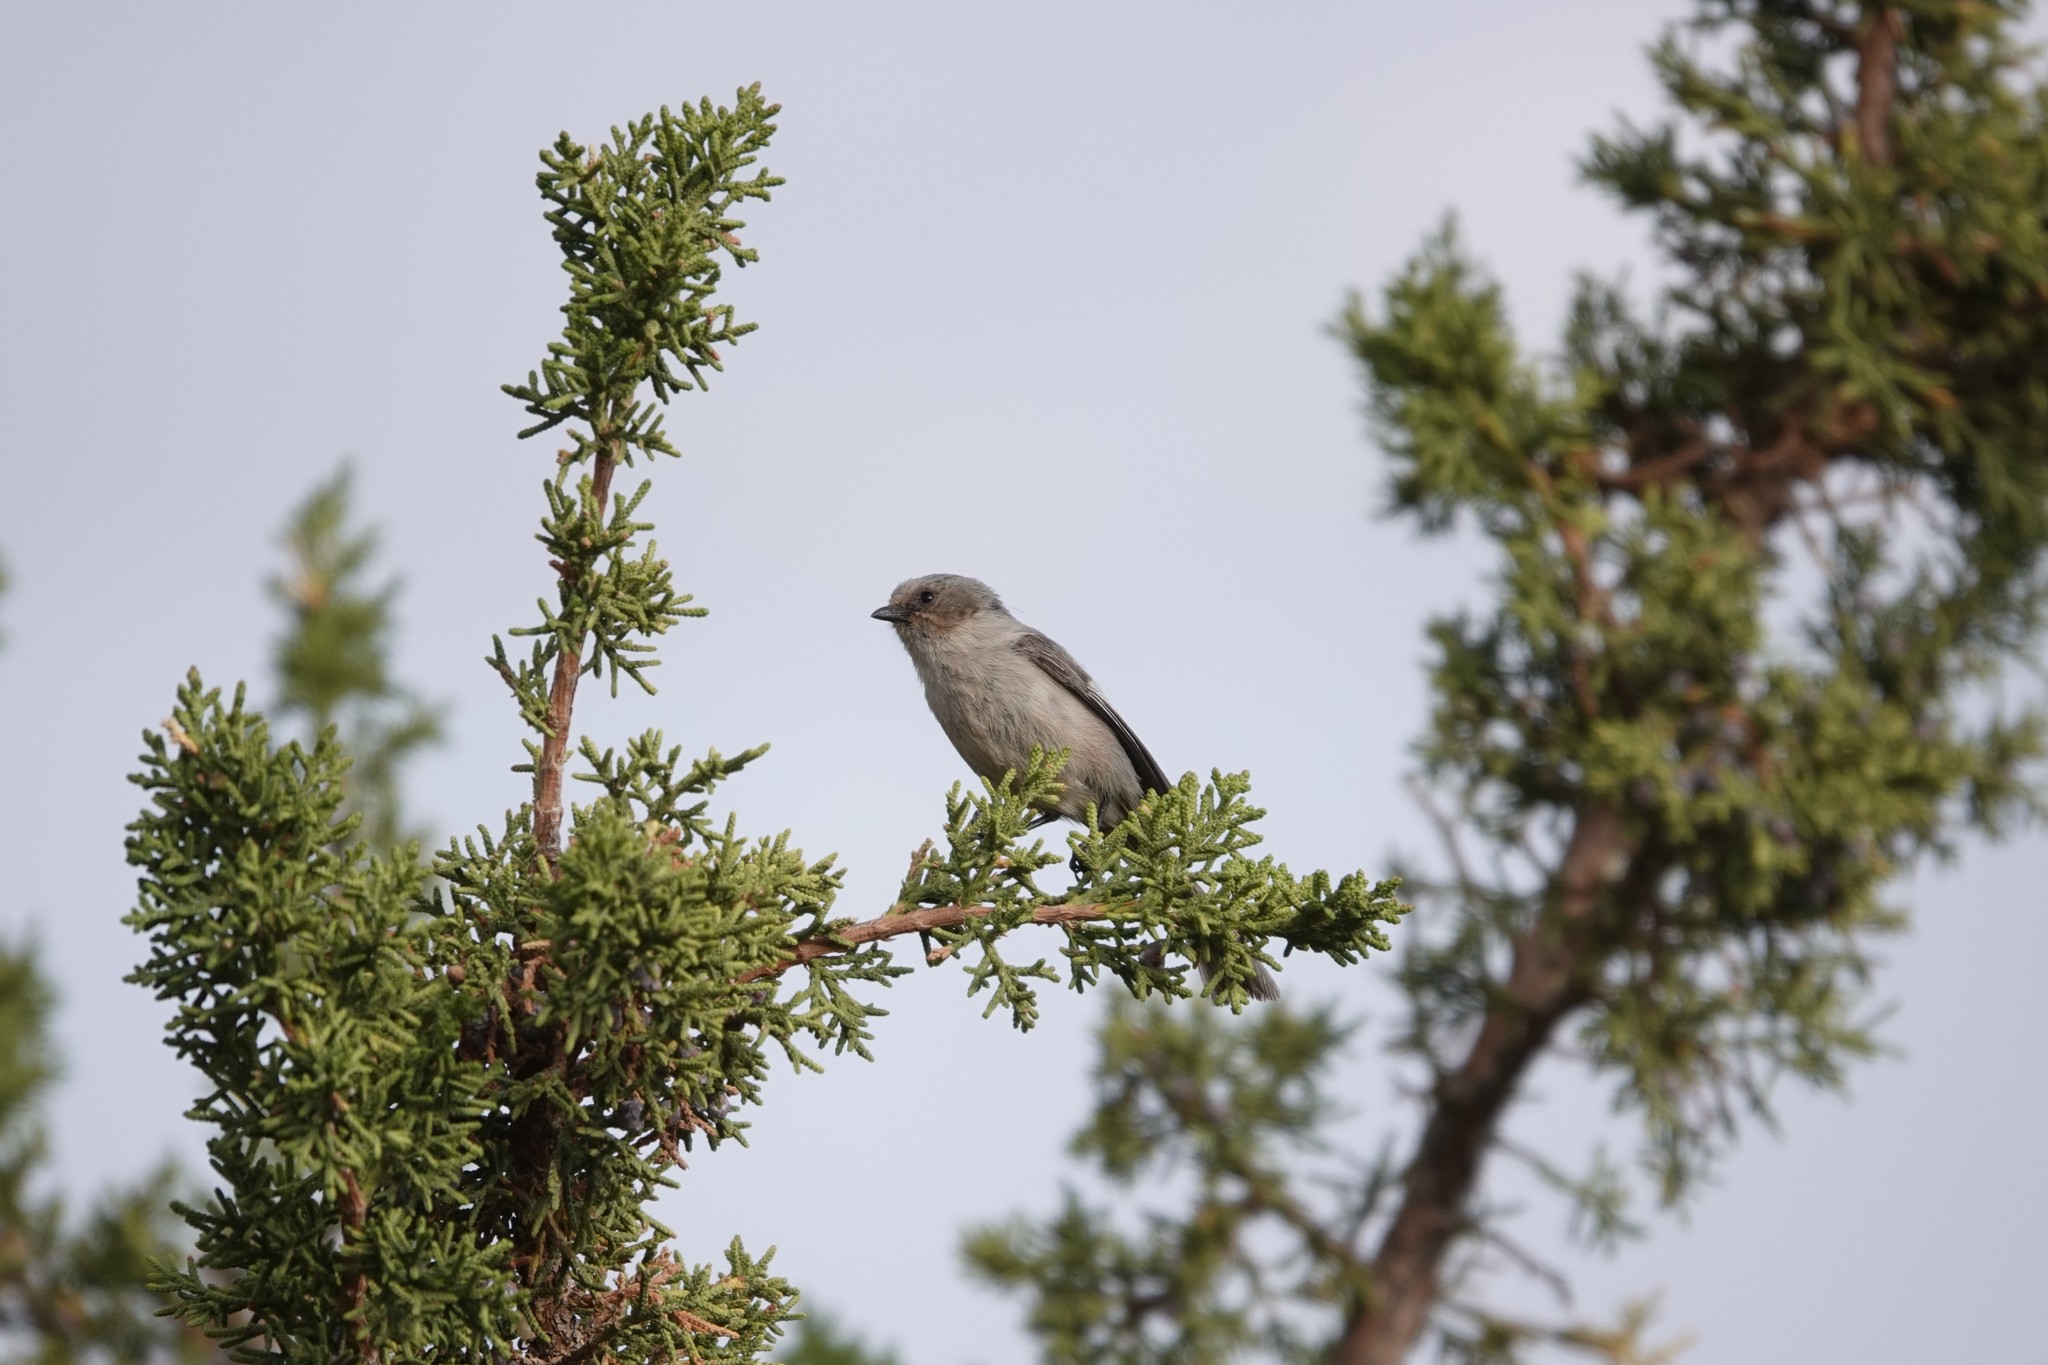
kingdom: Animalia
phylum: Chordata
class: Aves
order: Passeriformes
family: Aegithalidae
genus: Psaltriparus
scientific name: Psaltriparus minimus
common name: American bushtit
